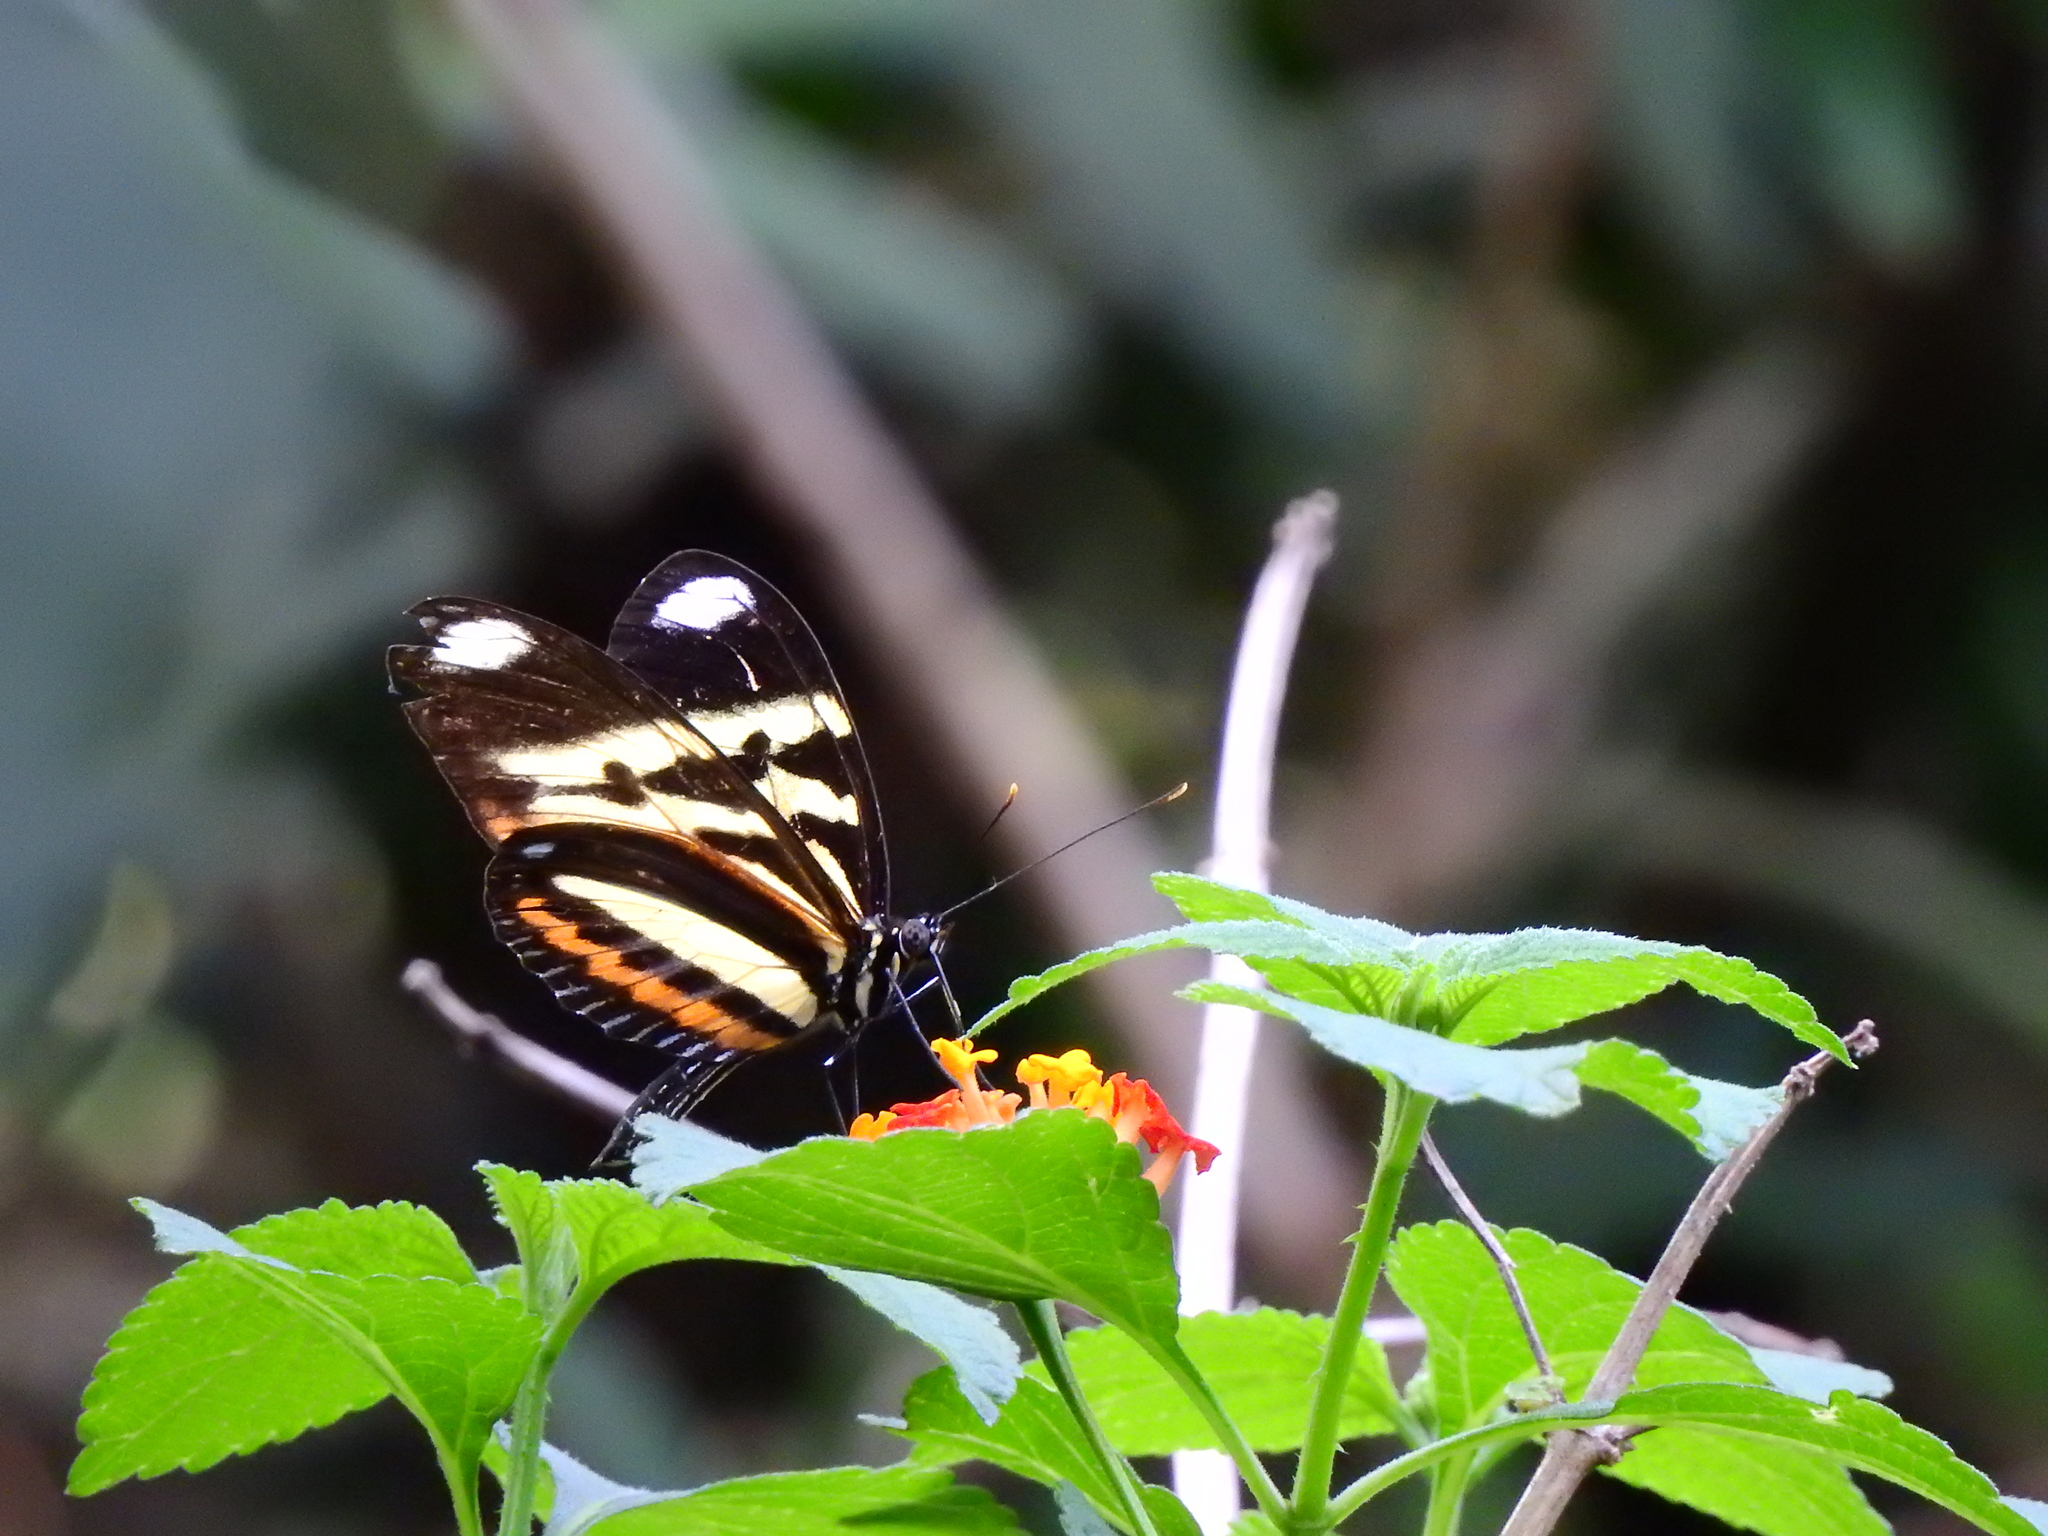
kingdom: Animalia
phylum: Arthropoda
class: Insecta
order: Lepidoptera
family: Nymphalidae
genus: Heliconius
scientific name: Heliconius ethilla
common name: Ethilia longwing
